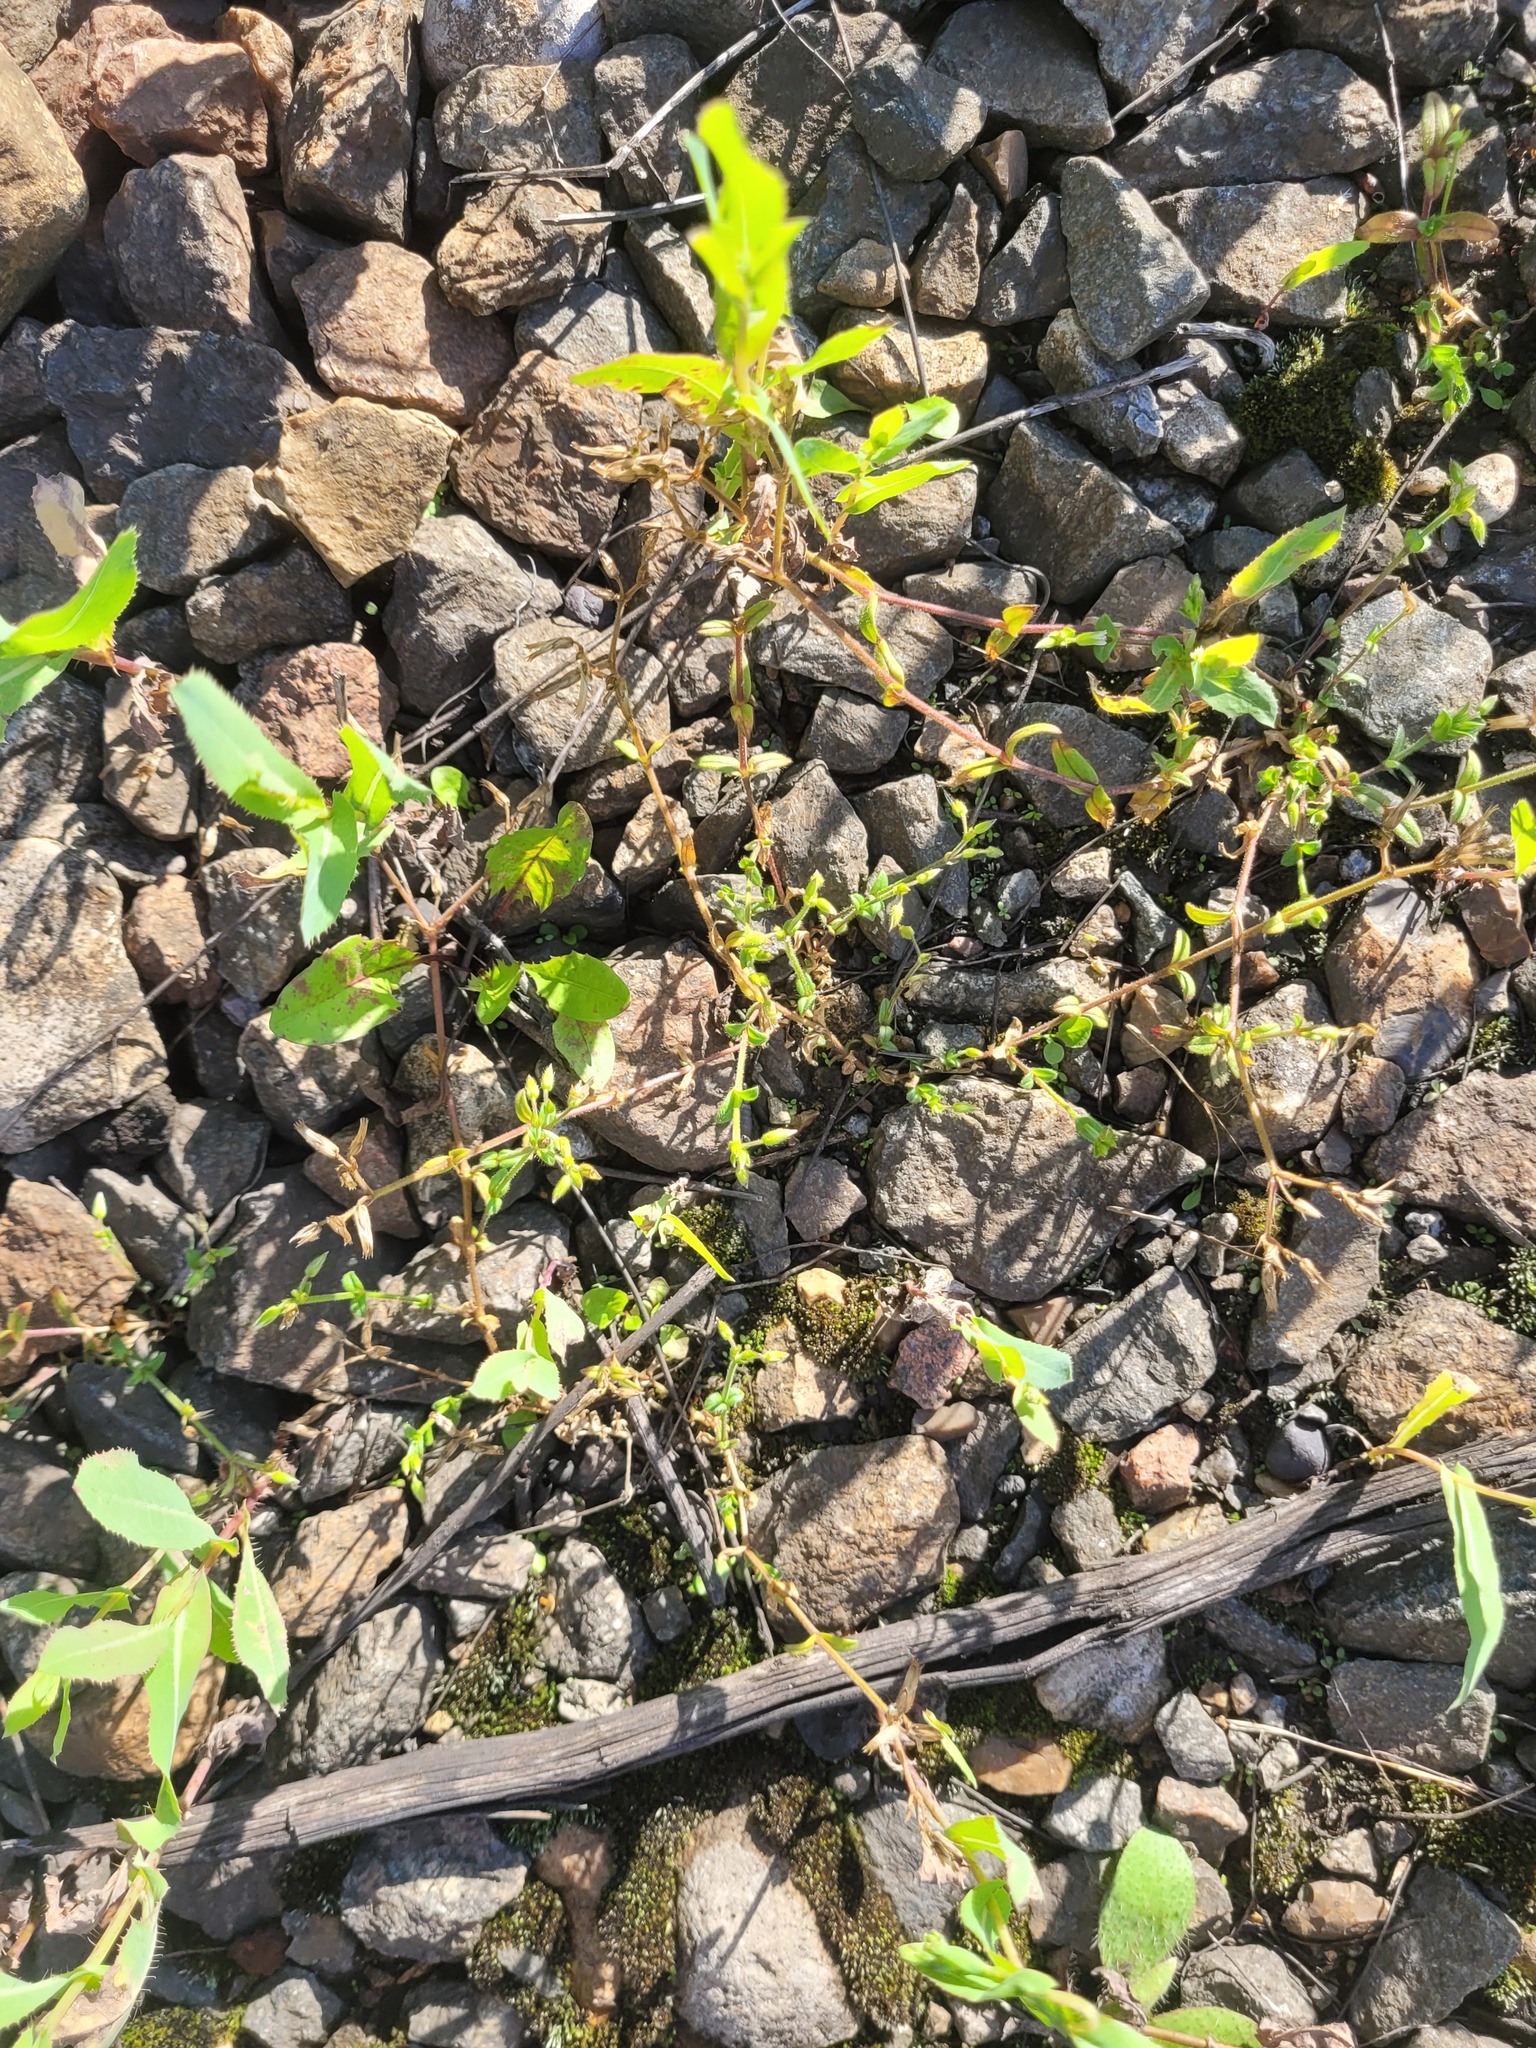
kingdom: Plantae
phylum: Tracheophyta
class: Magnoliopsida
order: Caryophyllales
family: Caryophyllaceae
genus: Cerastium
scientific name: Cerastium holosteoides
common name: Big chickweed
